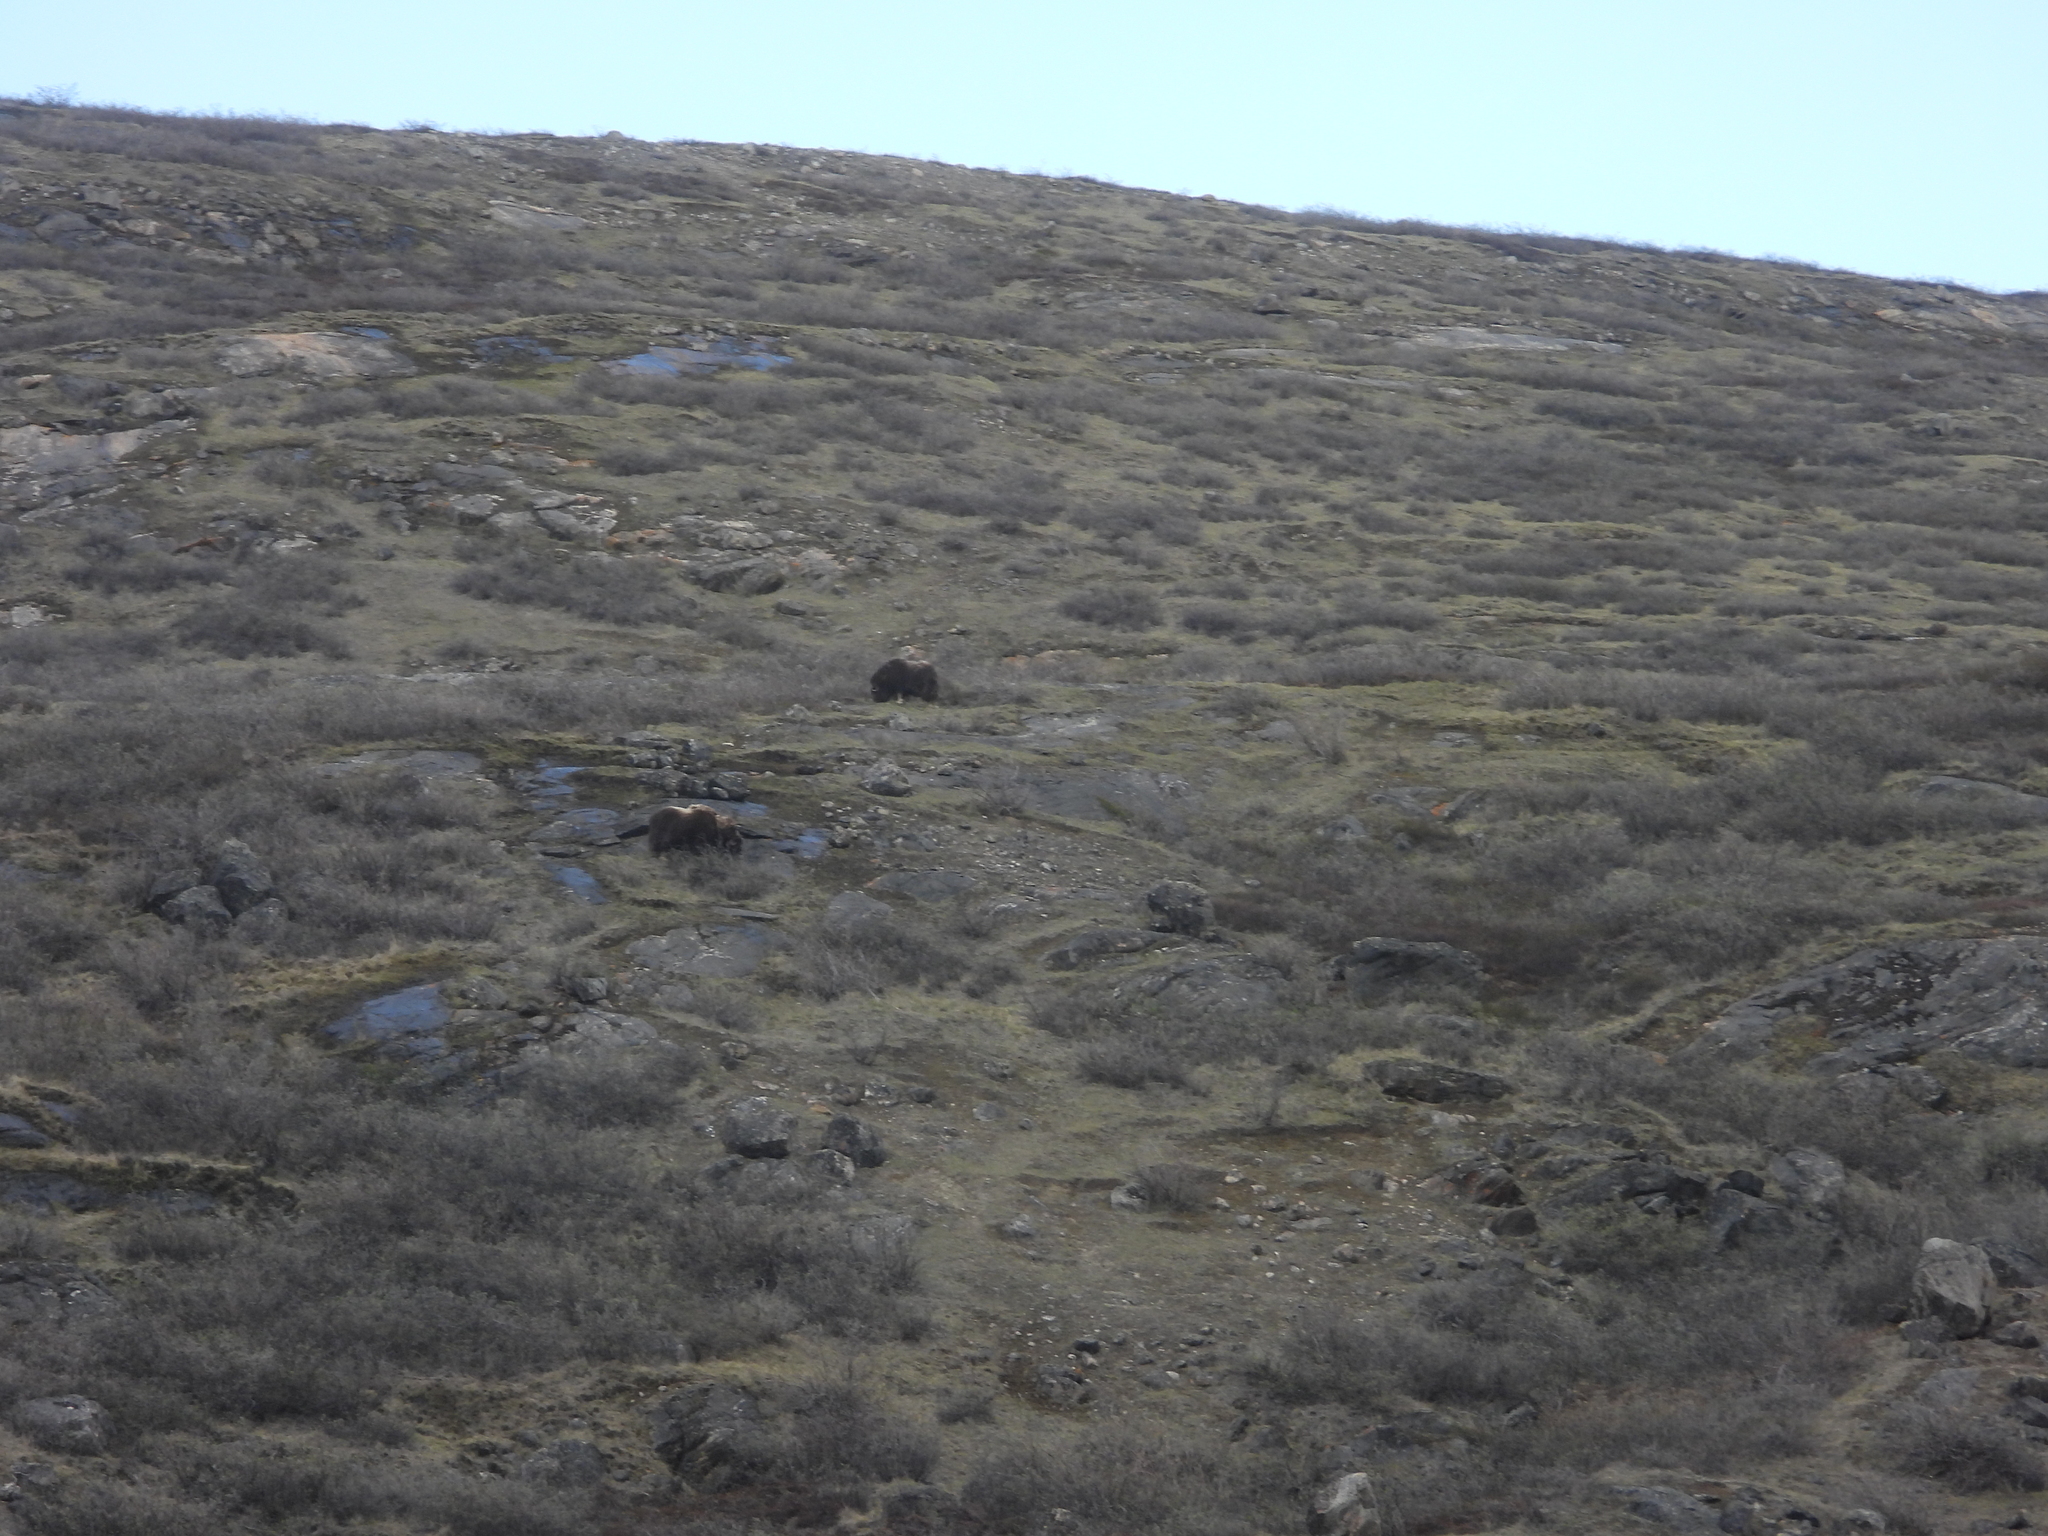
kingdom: Animalia
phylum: Chordata
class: Mammalia
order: Artiodactyla
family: Bovidae
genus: Ovibos
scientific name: Ovibos moschatus
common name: Muskox
